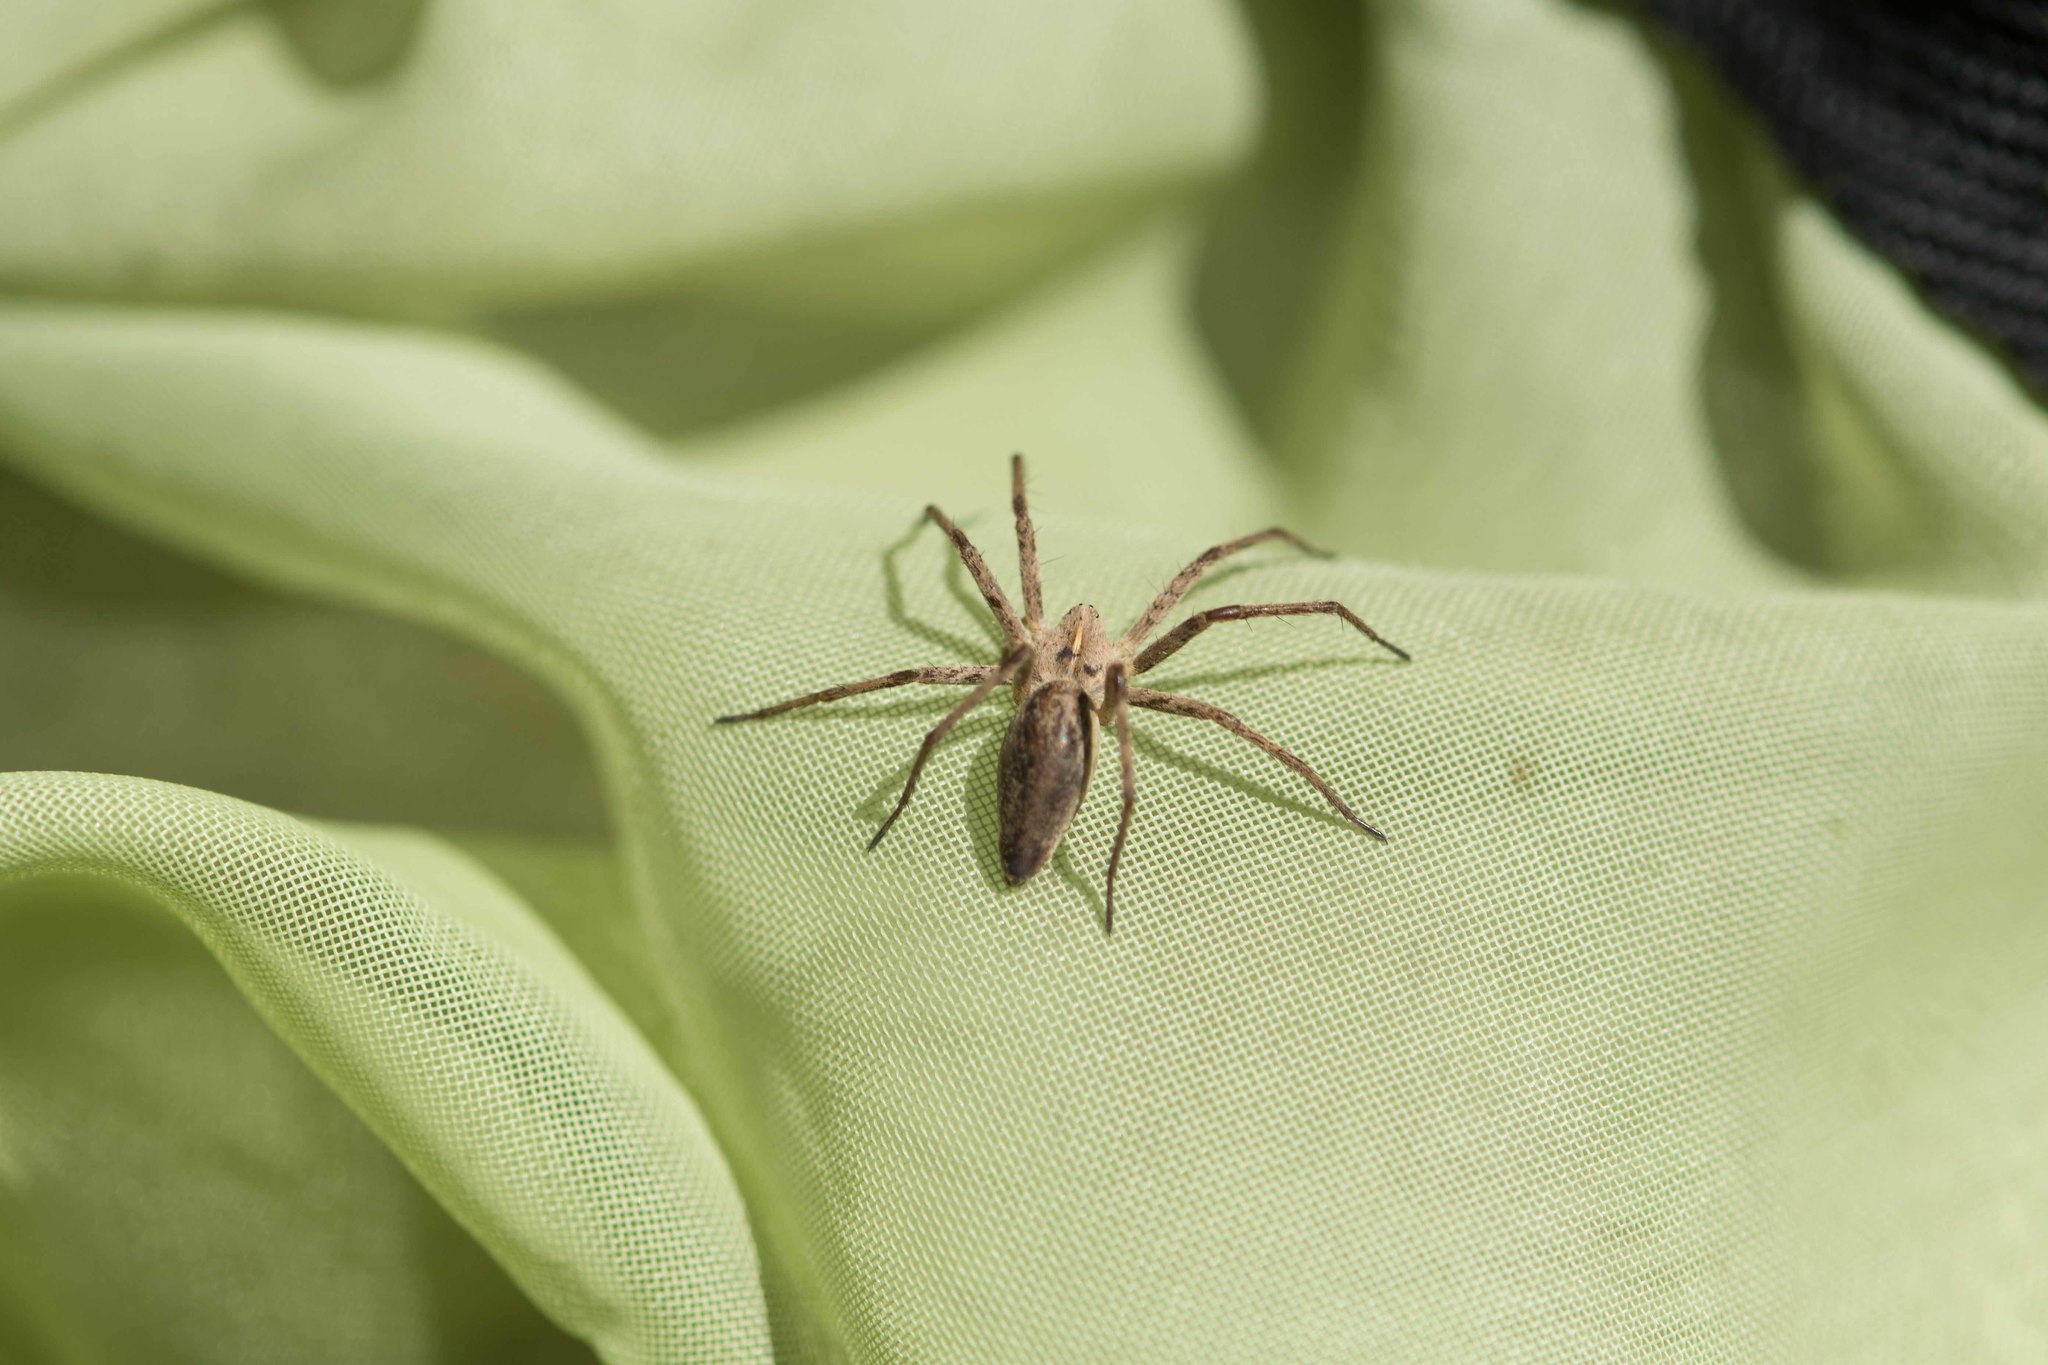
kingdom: Animalia
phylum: Arthropoda
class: Arachnida
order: Araneae
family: Pisauridae
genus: Pisaura
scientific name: Pisaura mirabilis
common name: Tent spider
